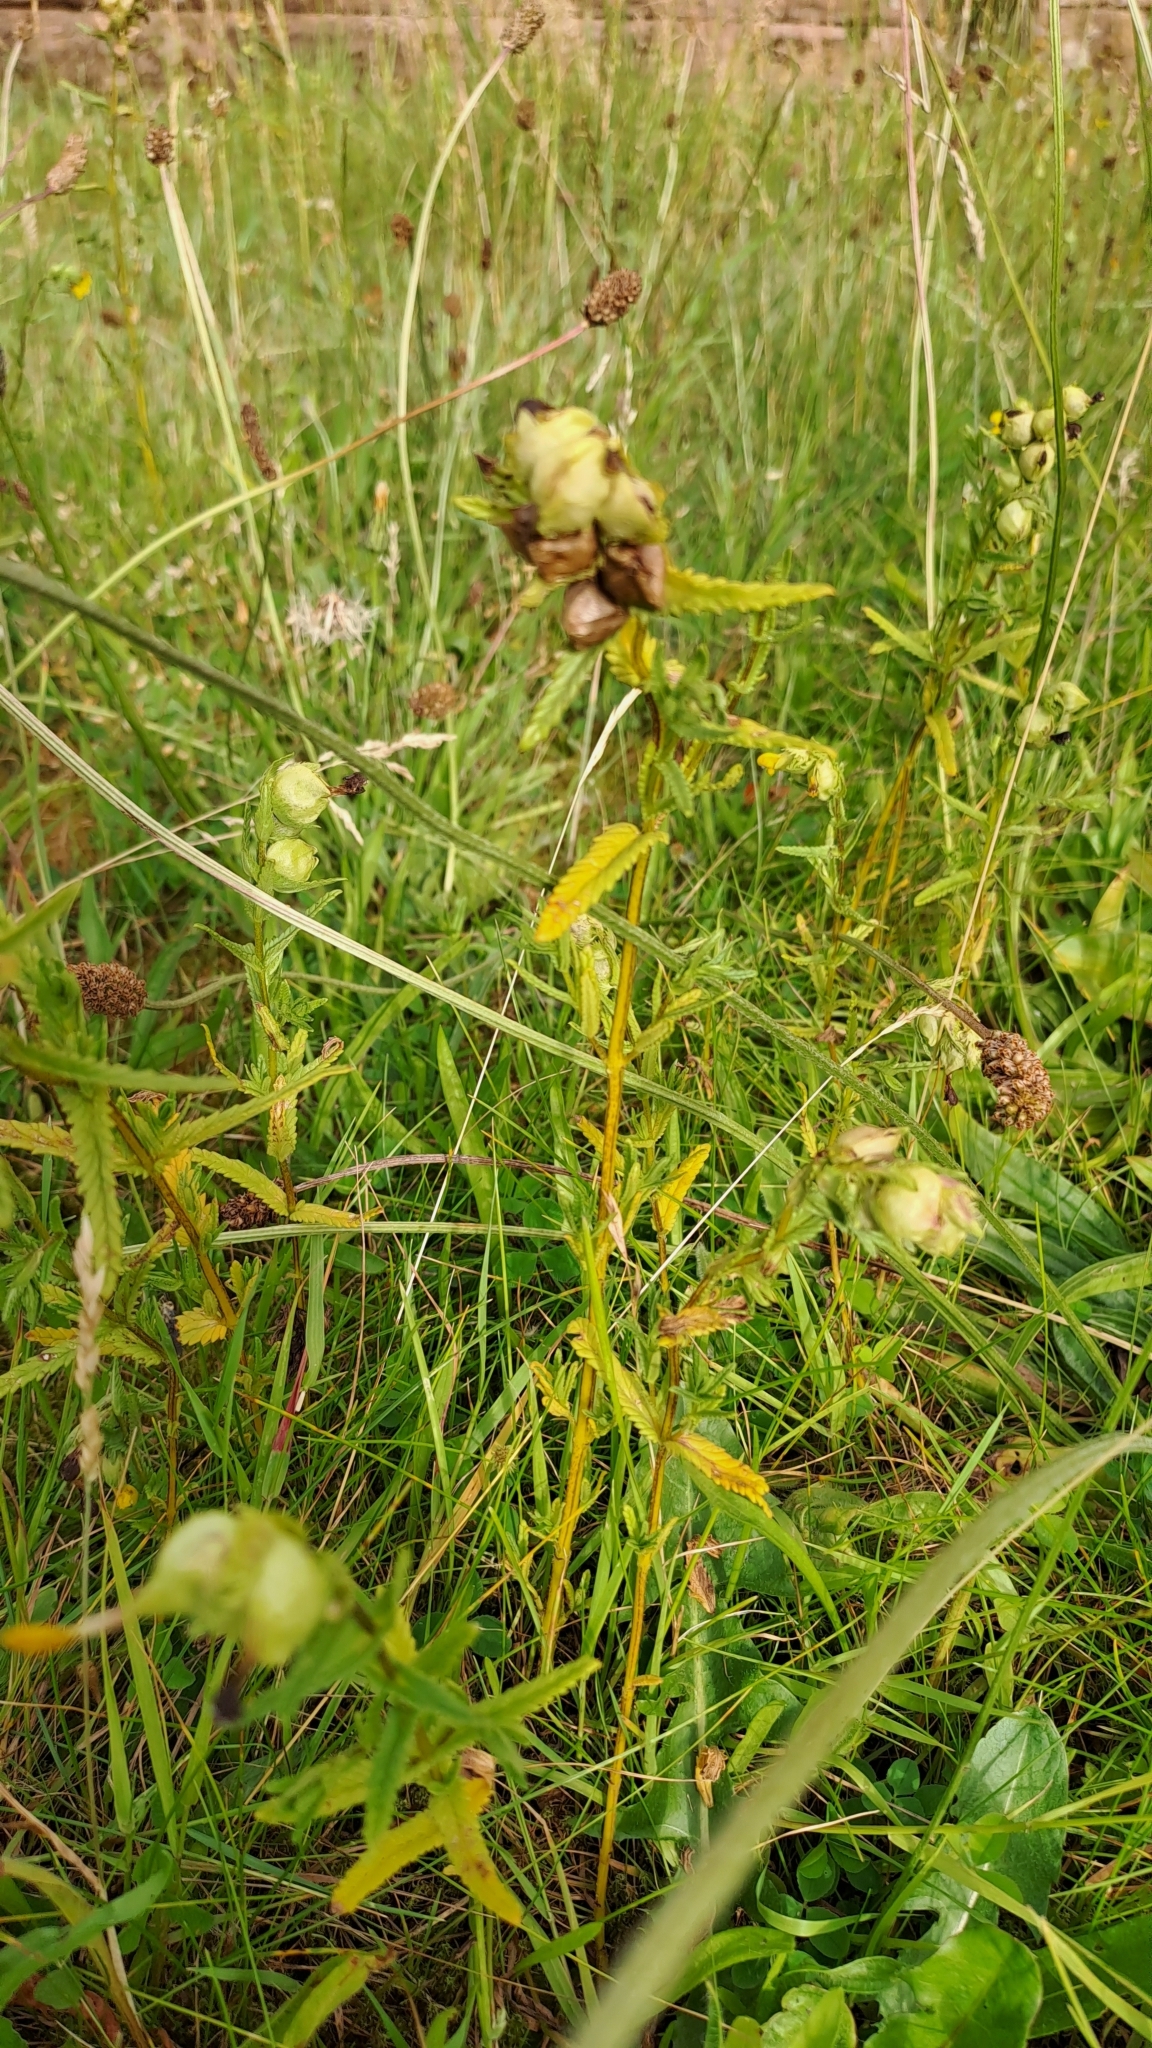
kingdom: Plantae
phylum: Tracheophyta
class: Magnoliopsida
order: Lamiales
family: Orobanchaceae
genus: Rhinanthus
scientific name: Rhinanthus minor
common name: Yellow-rattle
